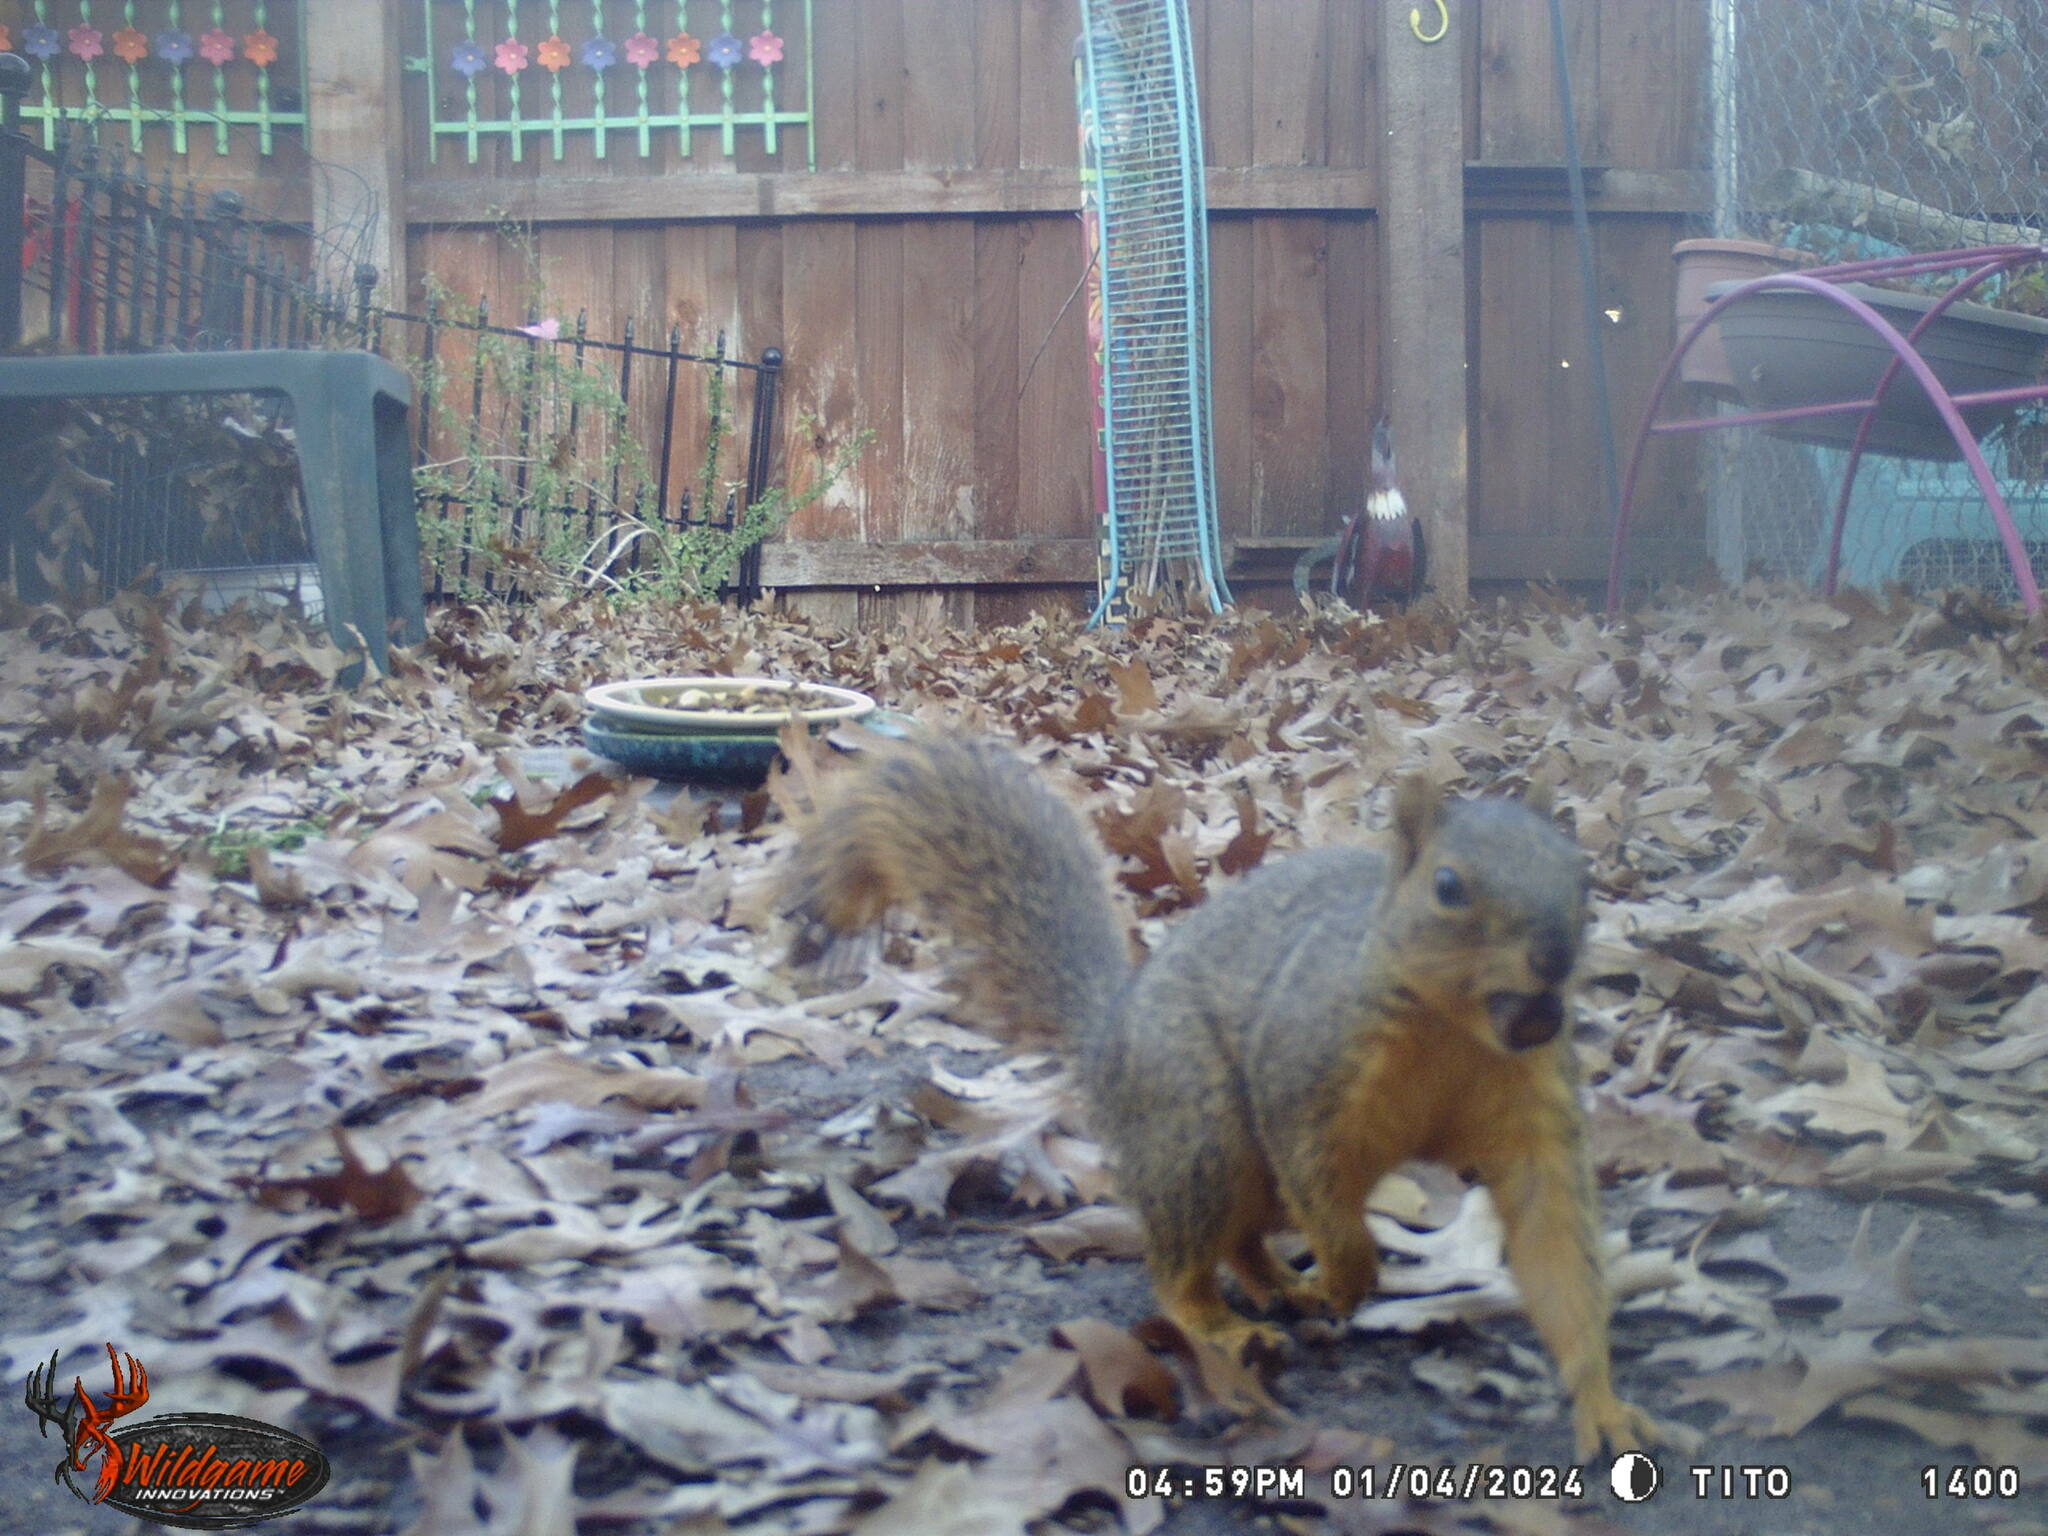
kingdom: Animalia
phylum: Chordata
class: Mammalia
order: Rodentia
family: Sciuridae
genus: Sciurus
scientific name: Sciurus niger
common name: Fox squirrel
